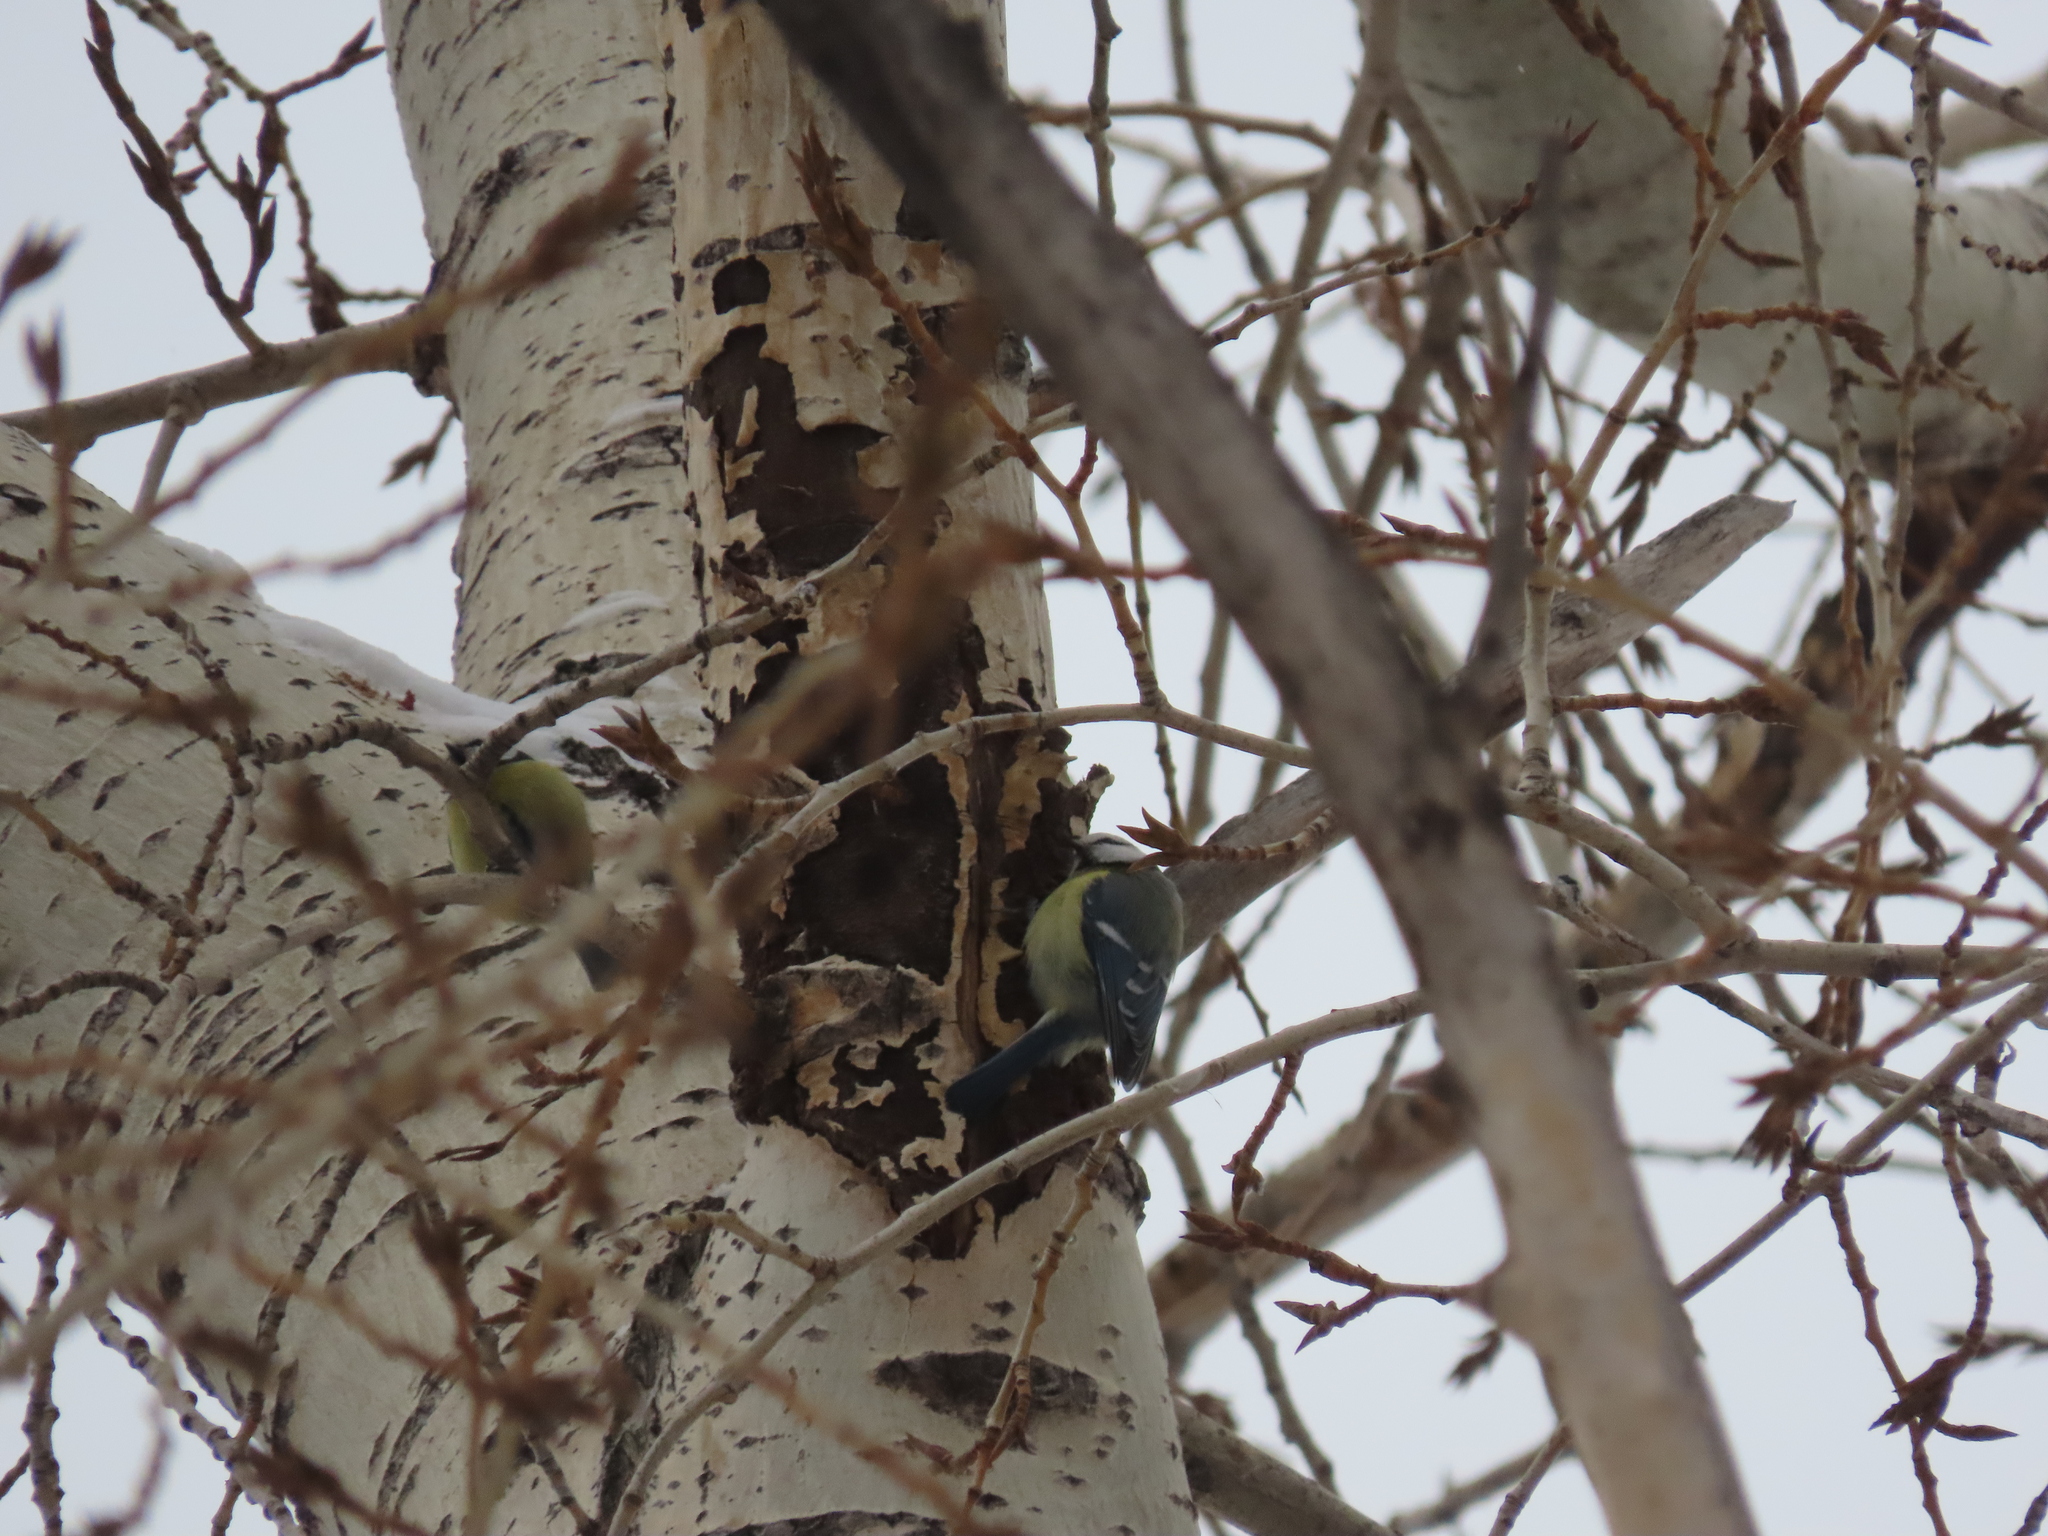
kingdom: Animalia
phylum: Chordata
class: Aves
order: Passeriformes
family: Paridae
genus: Cyanistes
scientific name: Cyanistes caeruleus
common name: Eurasian blue tit
